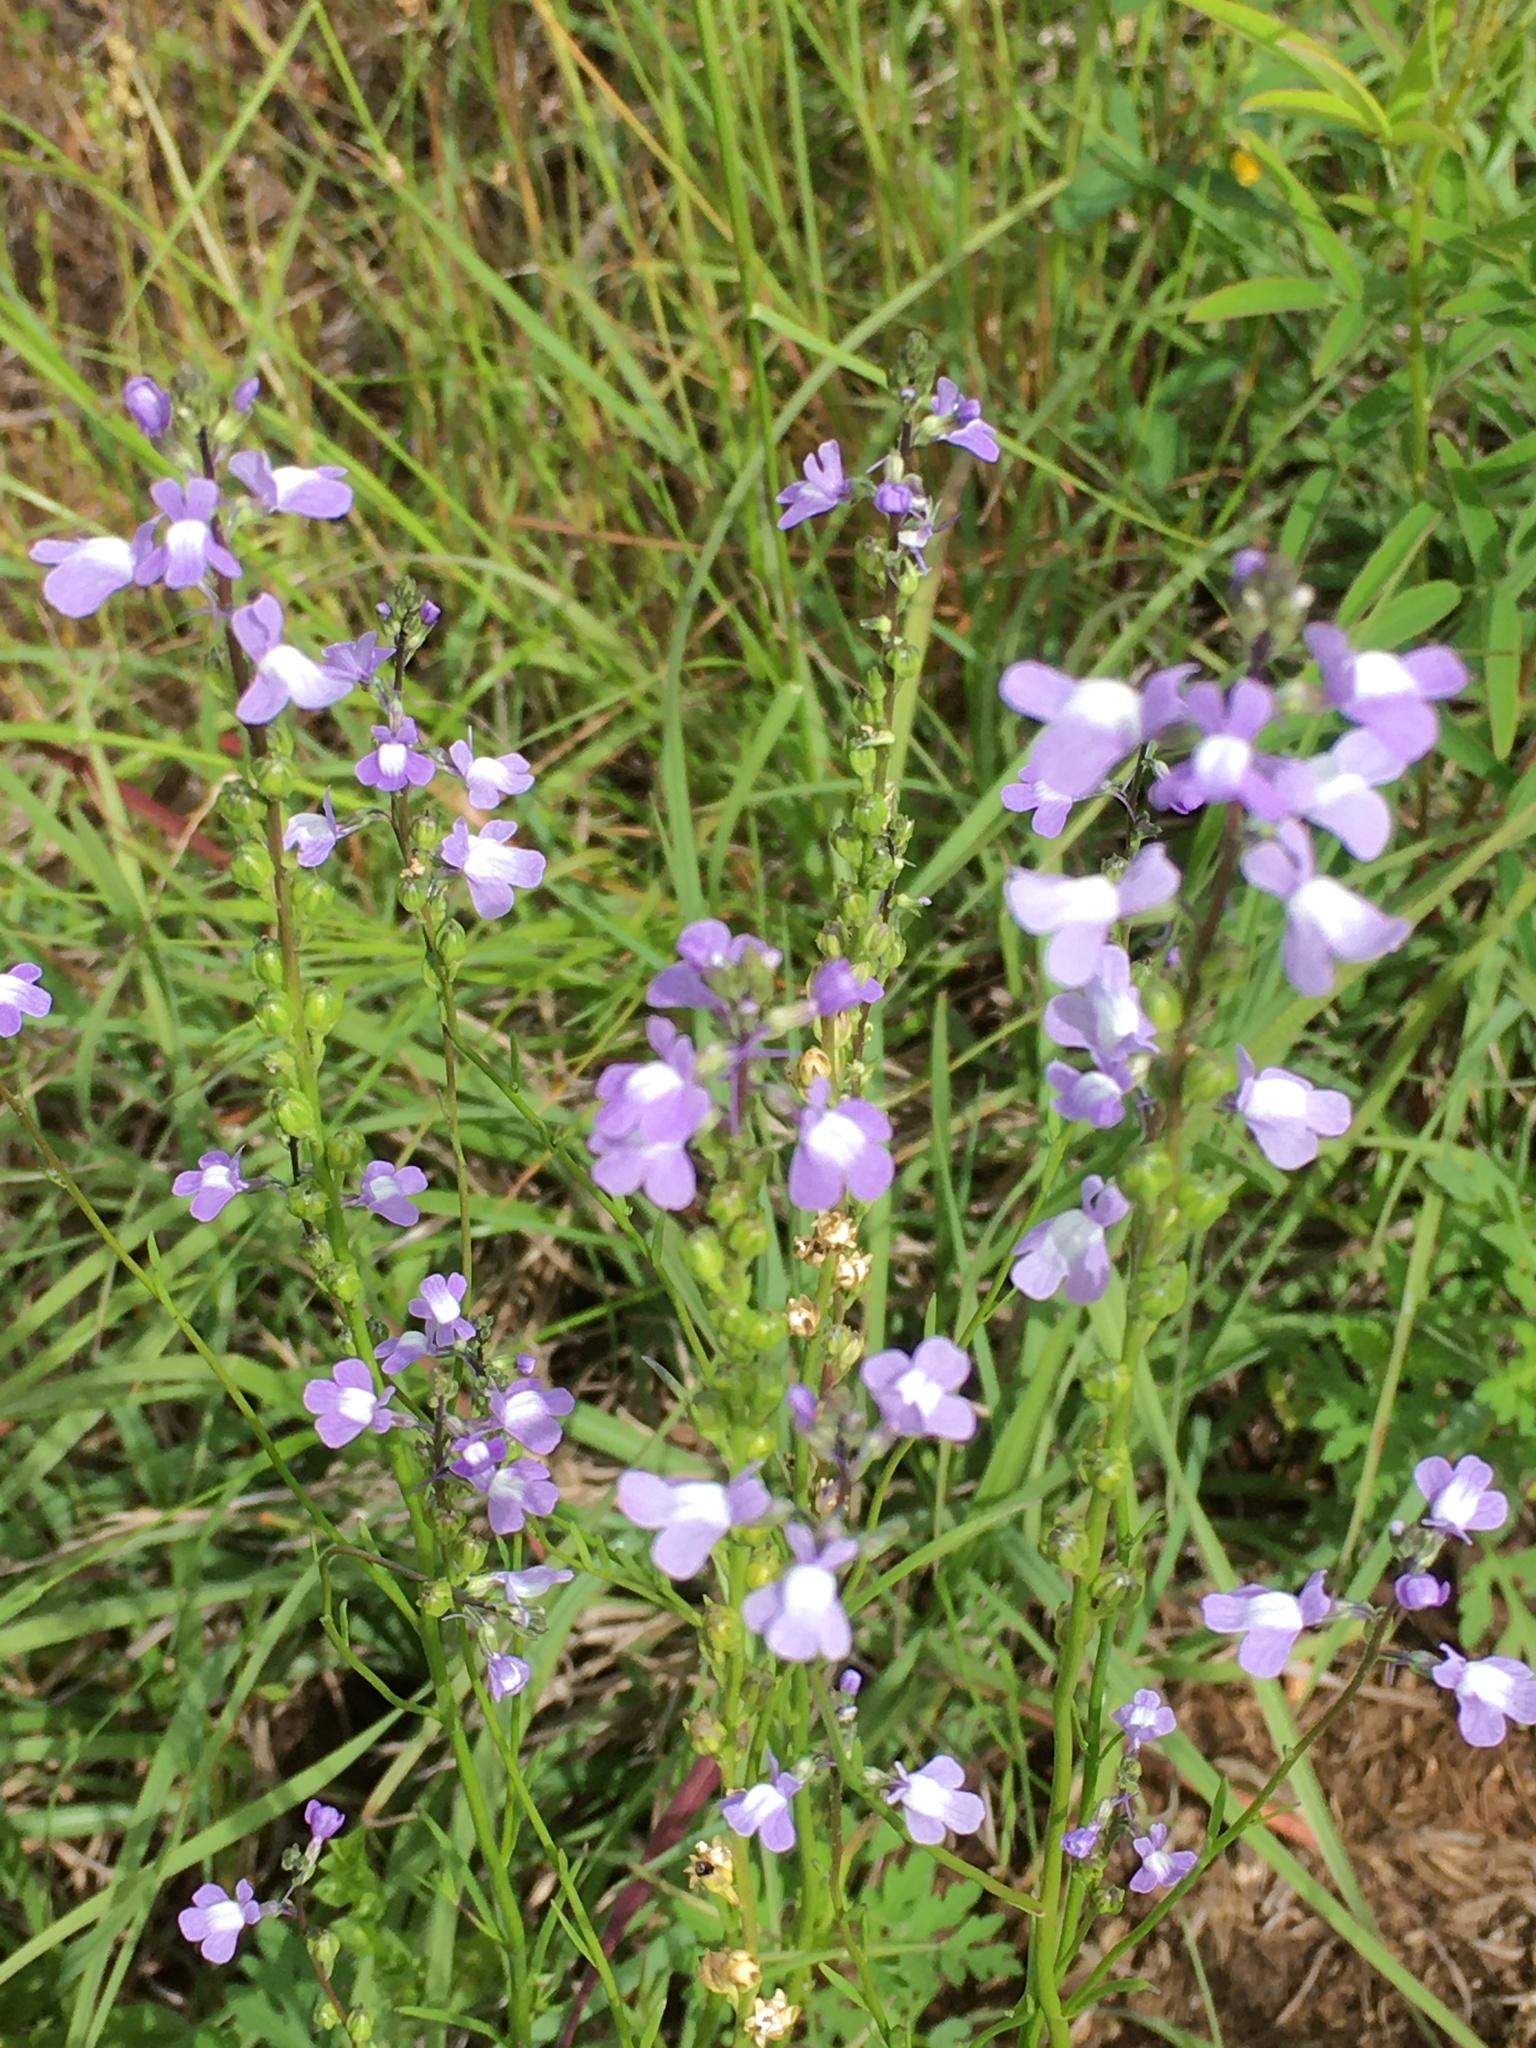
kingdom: Plantae
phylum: Tracheophyta
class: Magnoliopsida
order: Lamiales
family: Plantaginaceae
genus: Nuttallanthus
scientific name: Nuttallanthus canadensis
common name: Blue toadflax
